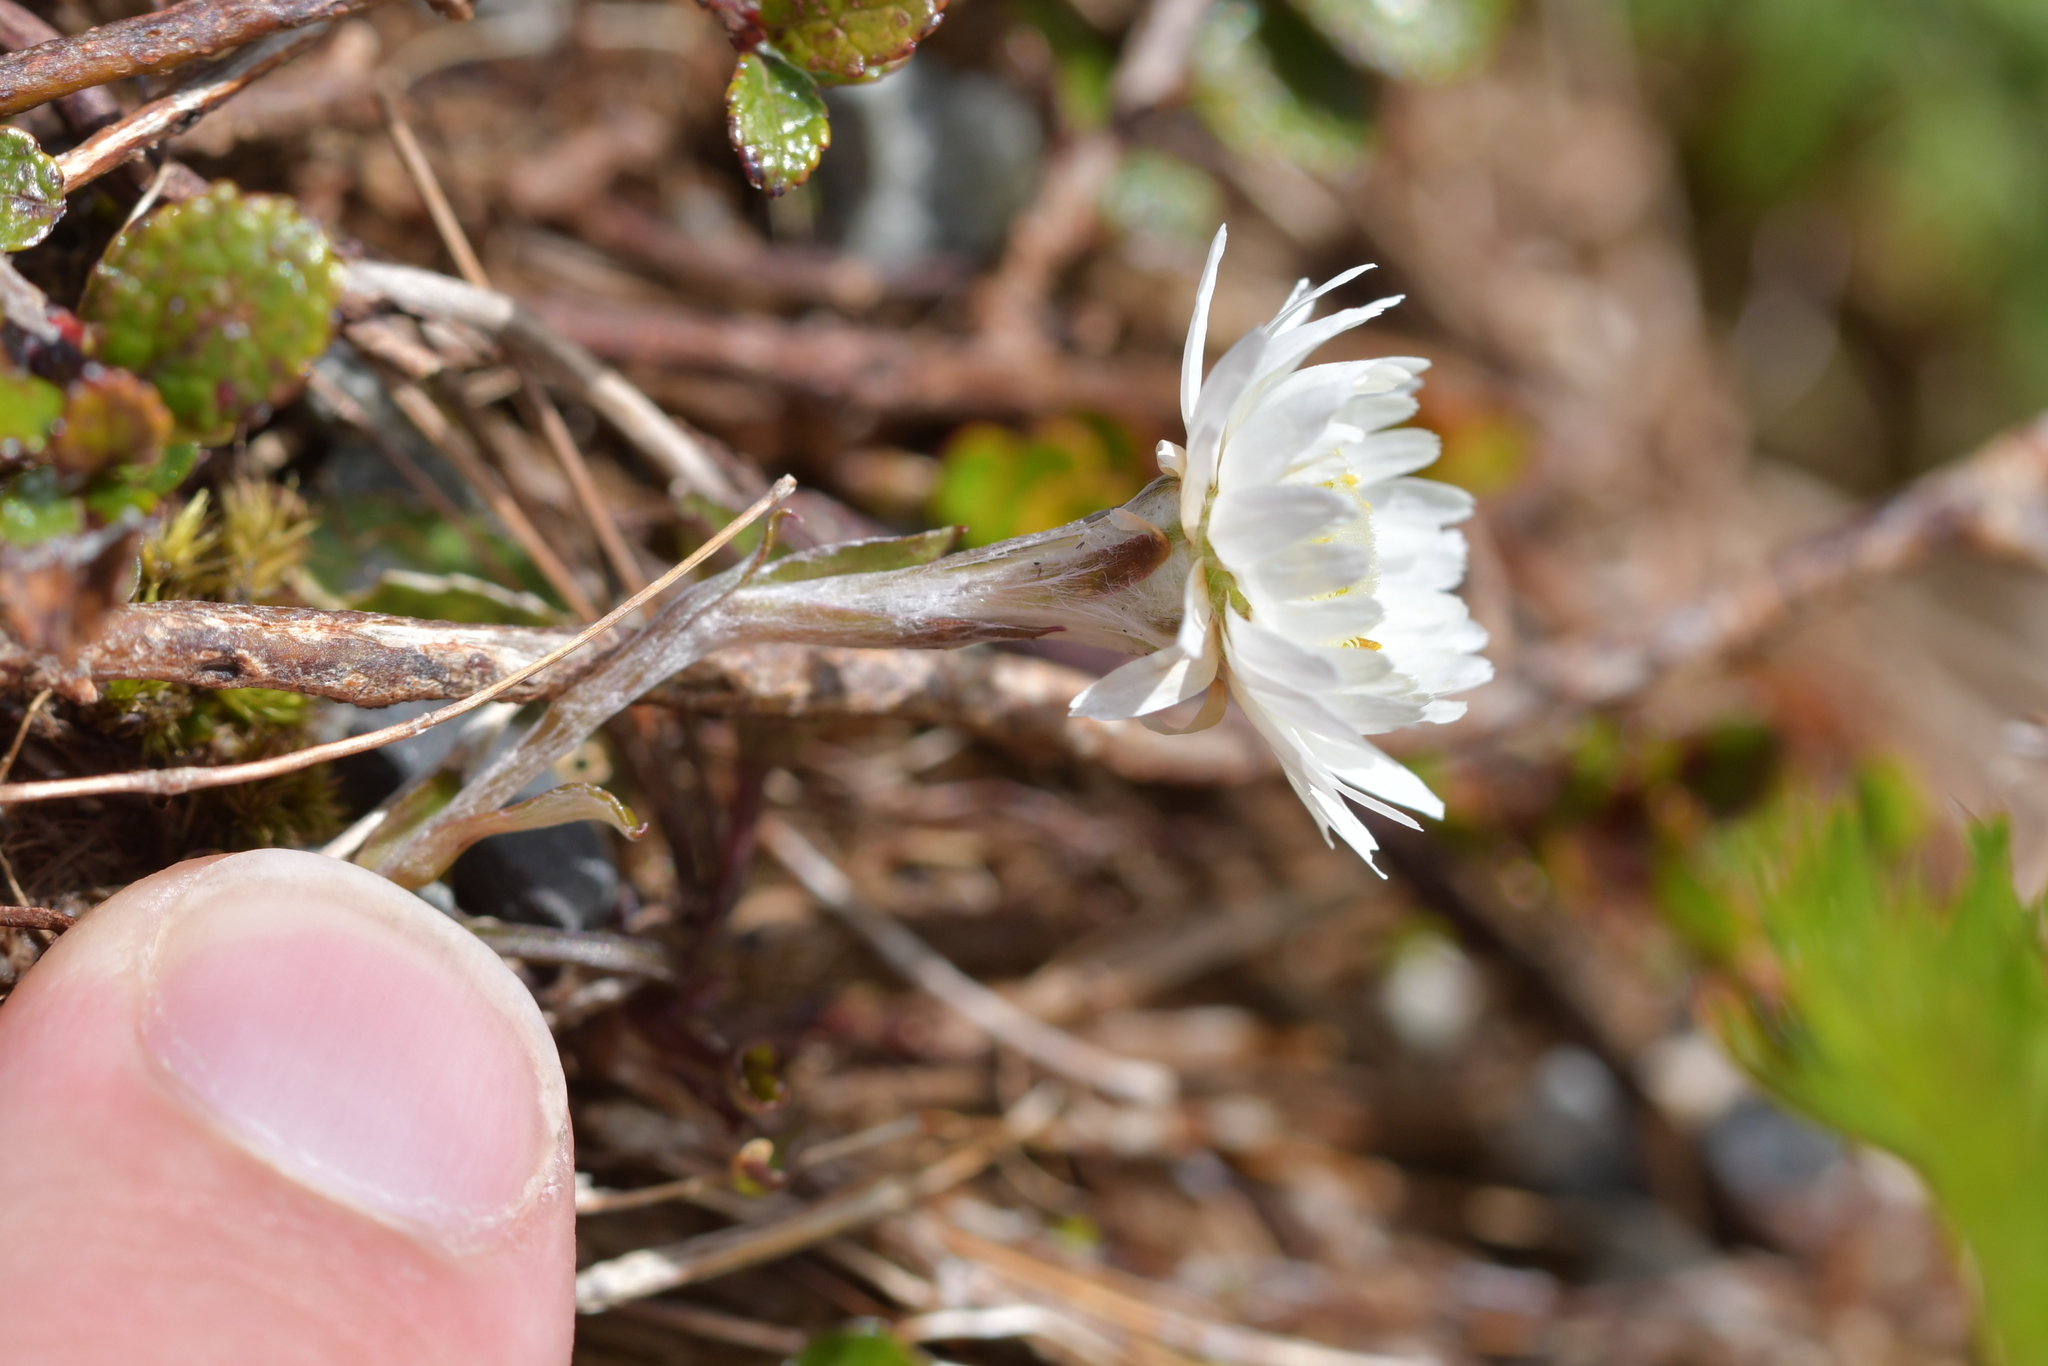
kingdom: Plantae
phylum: Tracheophyta
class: Magnoliopsida
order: Asterales
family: Asteraceae
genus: Anaphalioides
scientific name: Anaphalioides bellidioides
